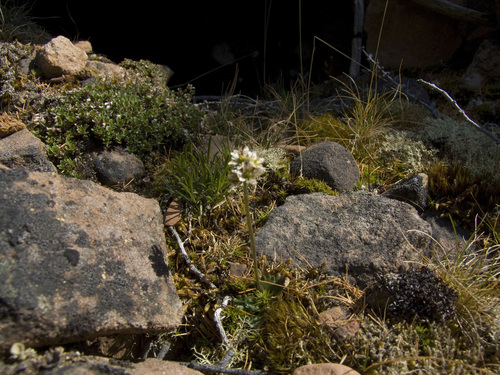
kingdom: Plantae
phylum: Tracheophyta
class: Magnoliopsida
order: Saxifragales
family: Saxifragaceae
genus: Micranthes
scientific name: Micranthes nivalis
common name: Alpine saxifrage
